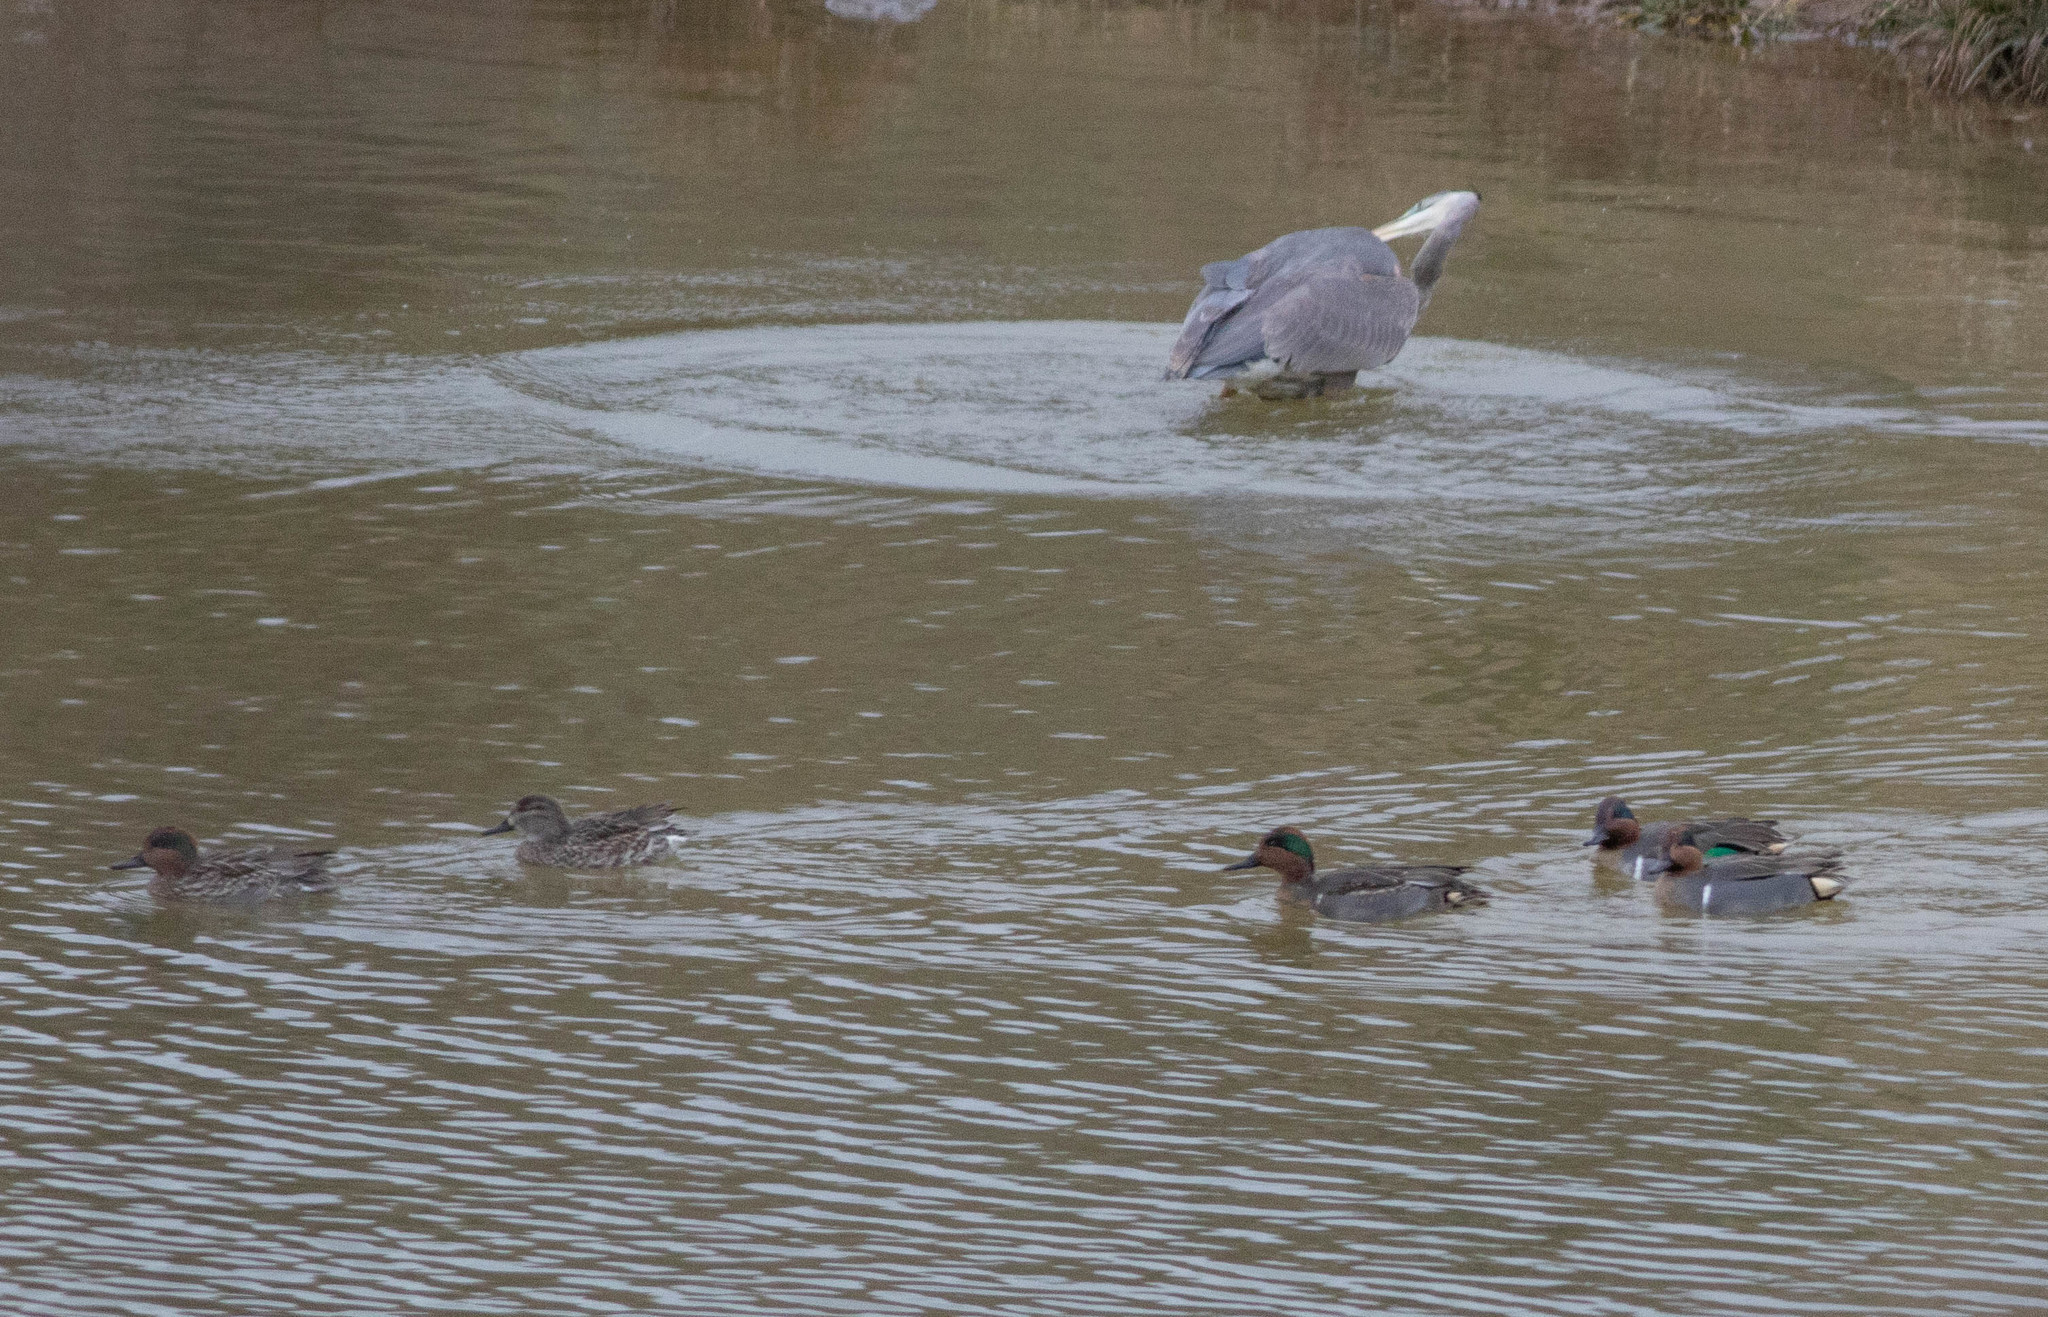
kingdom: Animalia
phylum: Chordata
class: Aves
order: Anseriformes
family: Anatidae
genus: Anas
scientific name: Anas crecca
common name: Eurasian teal
